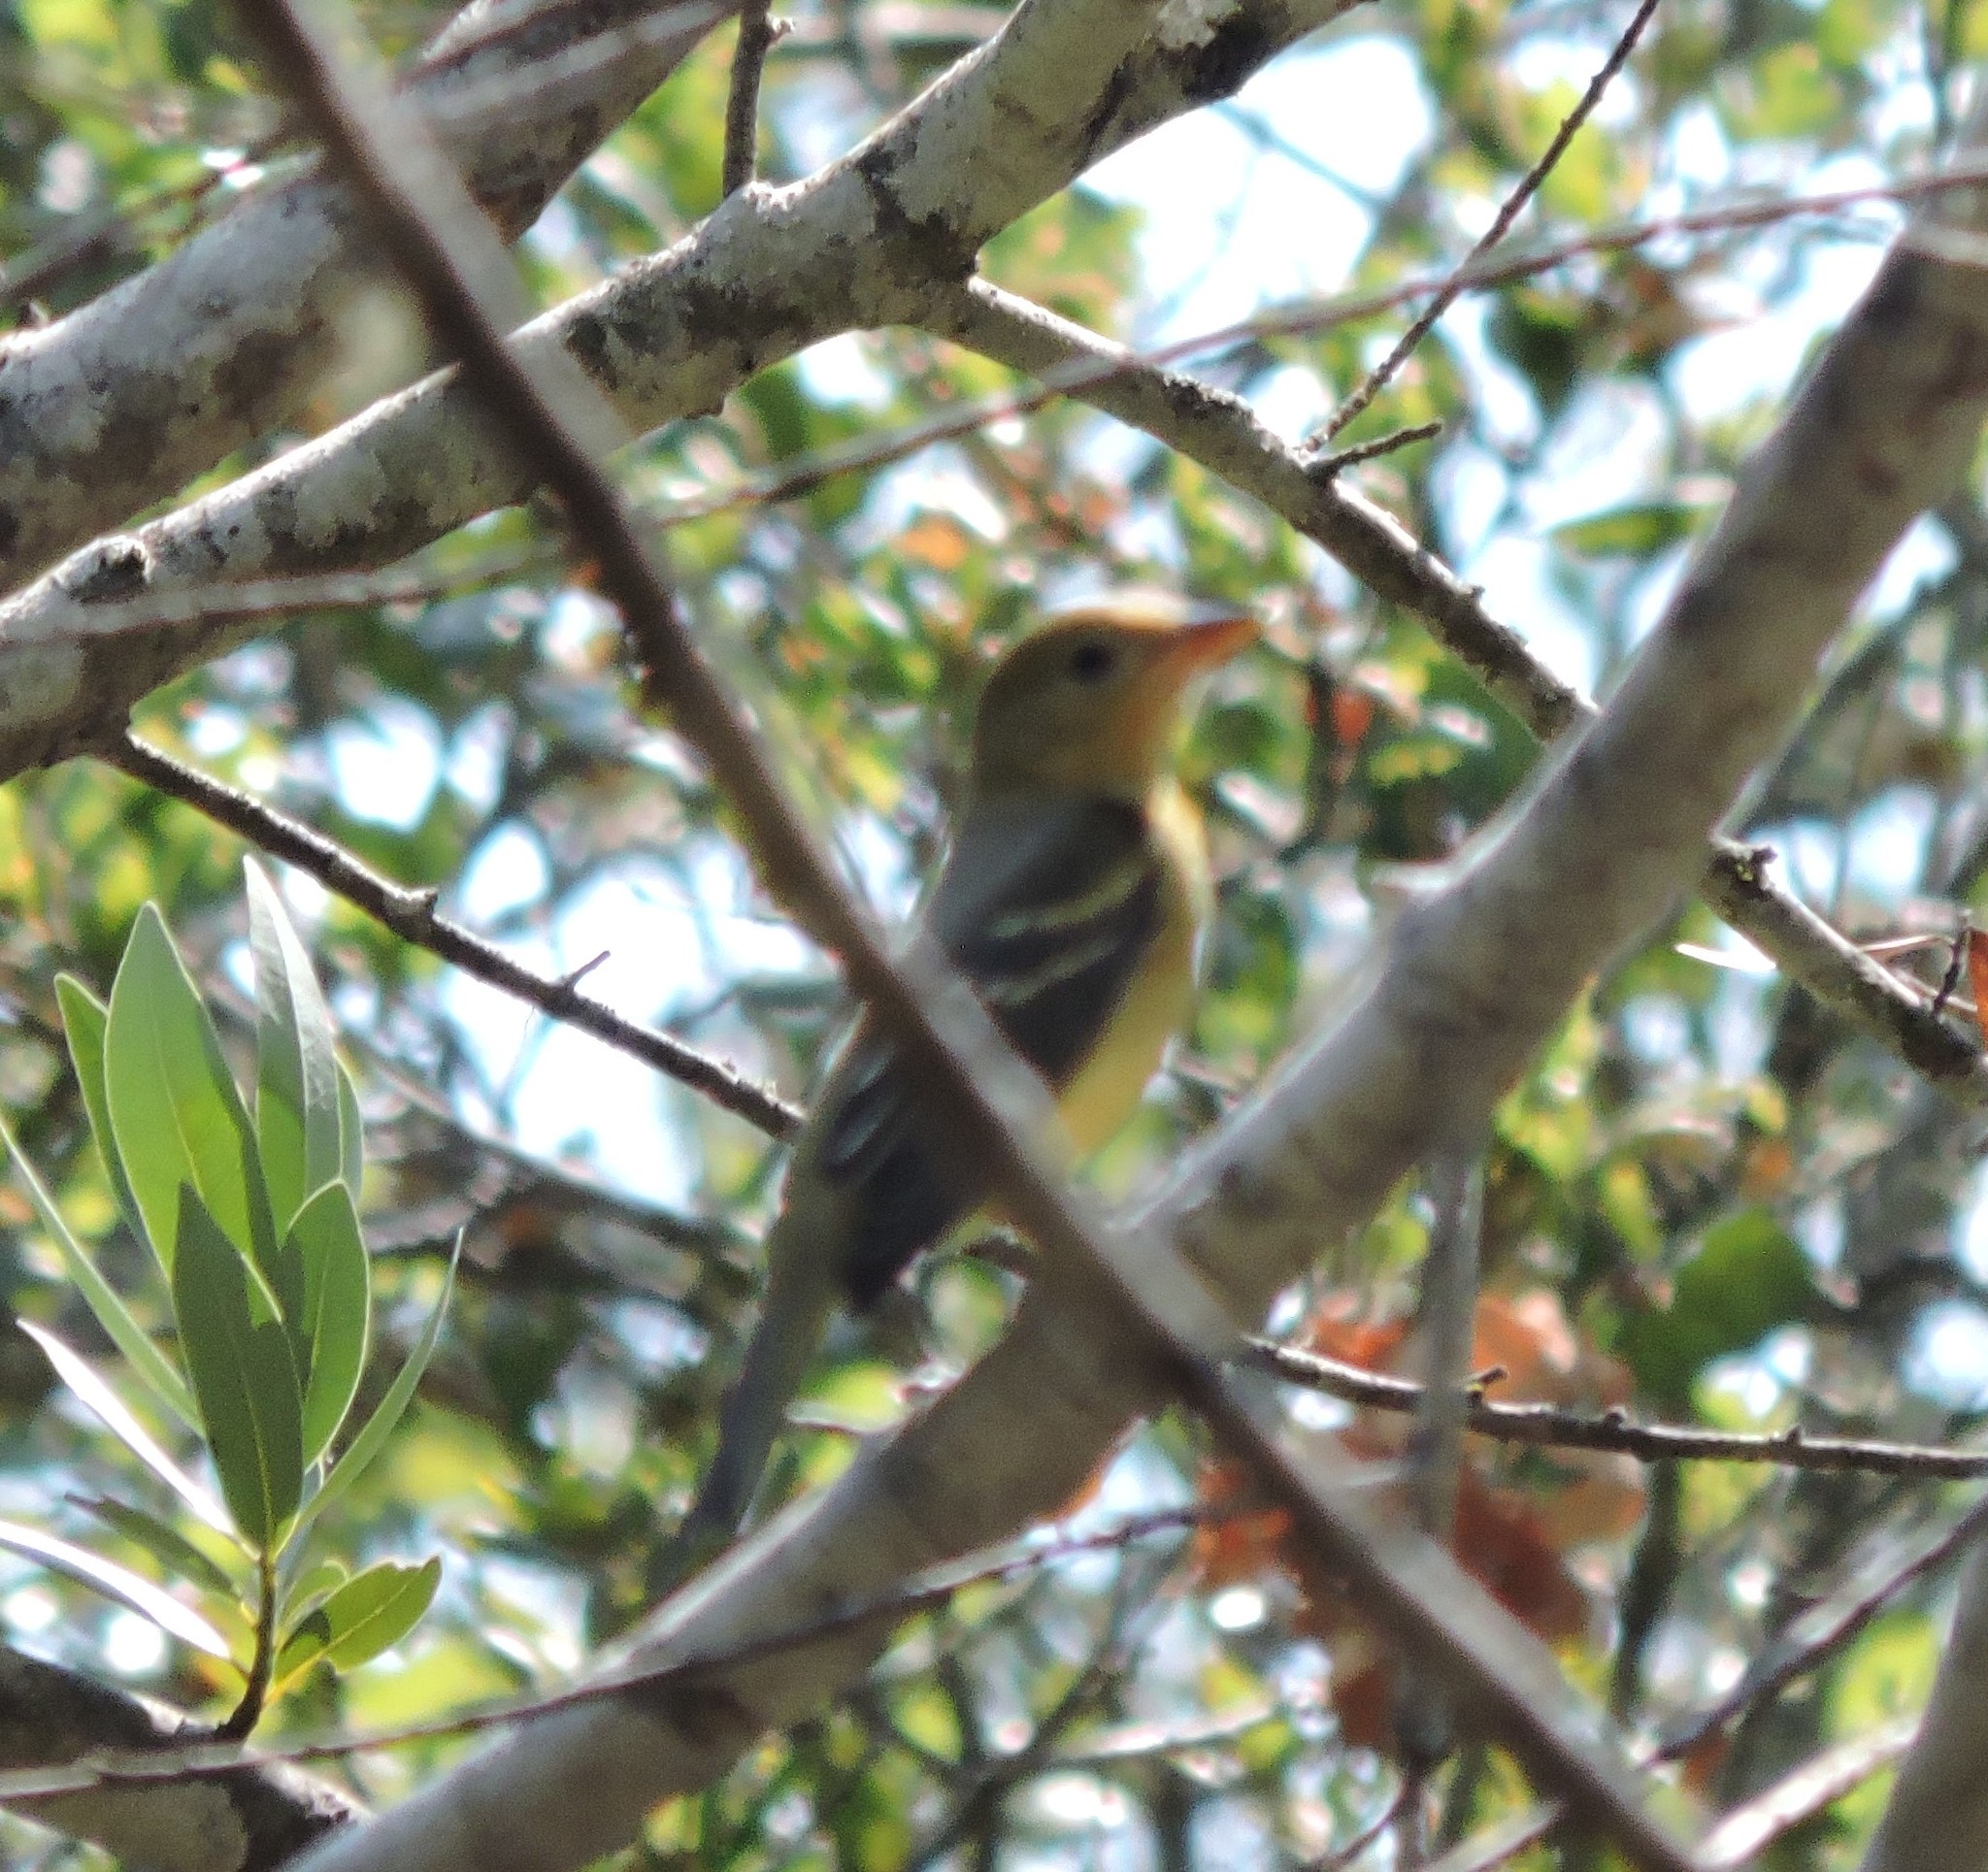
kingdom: Animalia
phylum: Chordata
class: Aves
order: Passeriformes
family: Cardinalidae
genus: Piranga
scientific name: Piranga ludoviciana
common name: Western tanager
